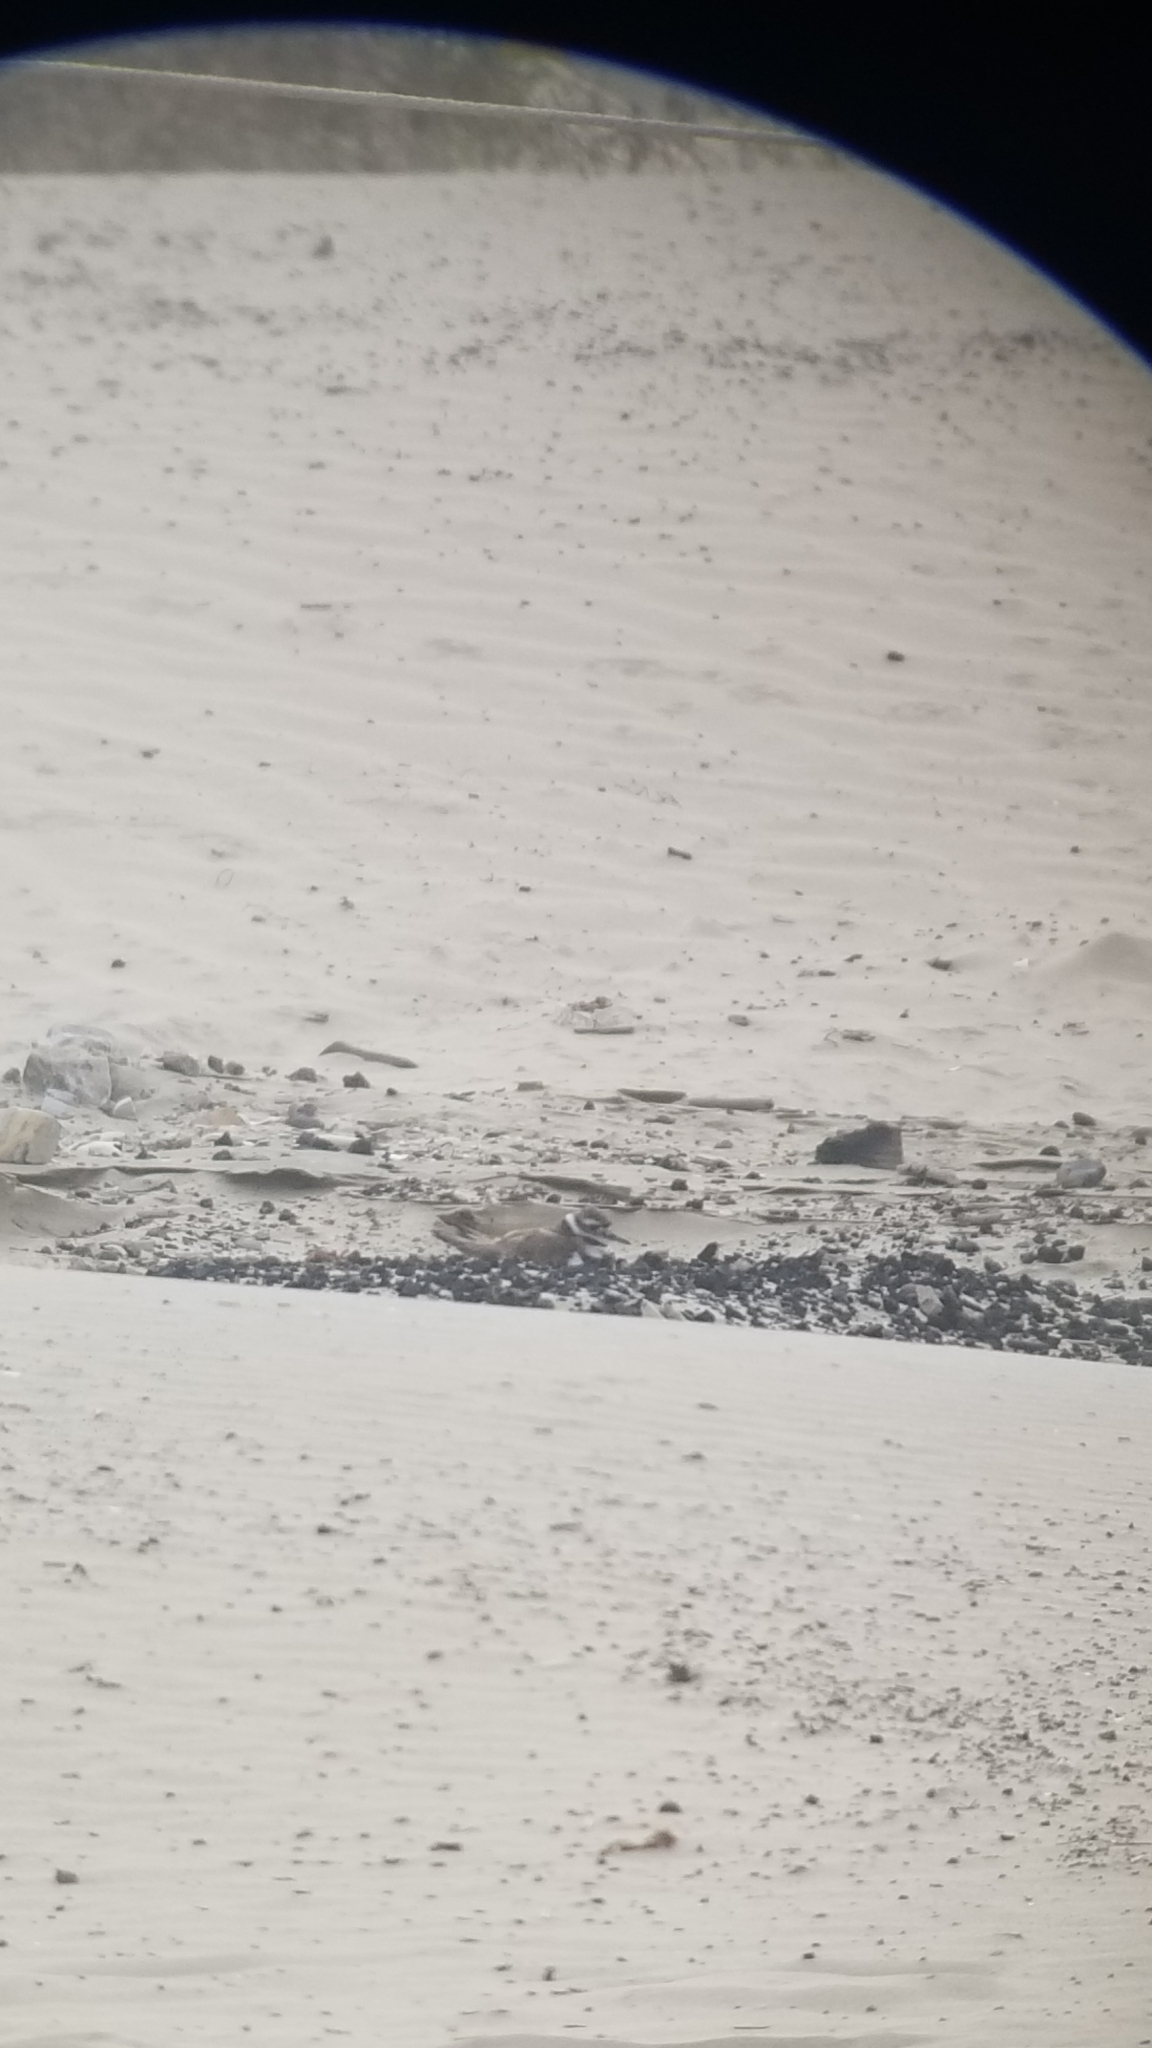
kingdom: Animalia
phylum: Chordata
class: Aves
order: Charadriiformes
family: Charadriidae
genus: Charadrius
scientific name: Charadrius vociferus
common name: Killdeer
